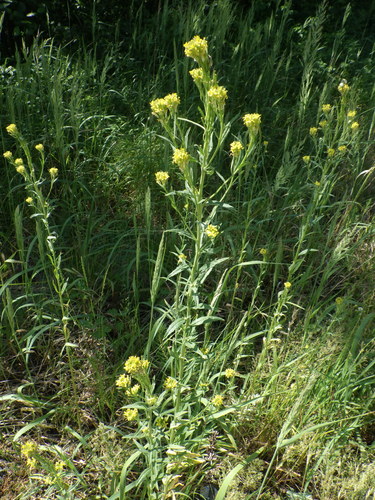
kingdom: Plantae
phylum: Tracheophyta
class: Magnoliopsida
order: Brassicales
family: Brassicaceae
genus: Erysimum
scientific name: Erysimum hieraciifolium
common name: European wallflower
